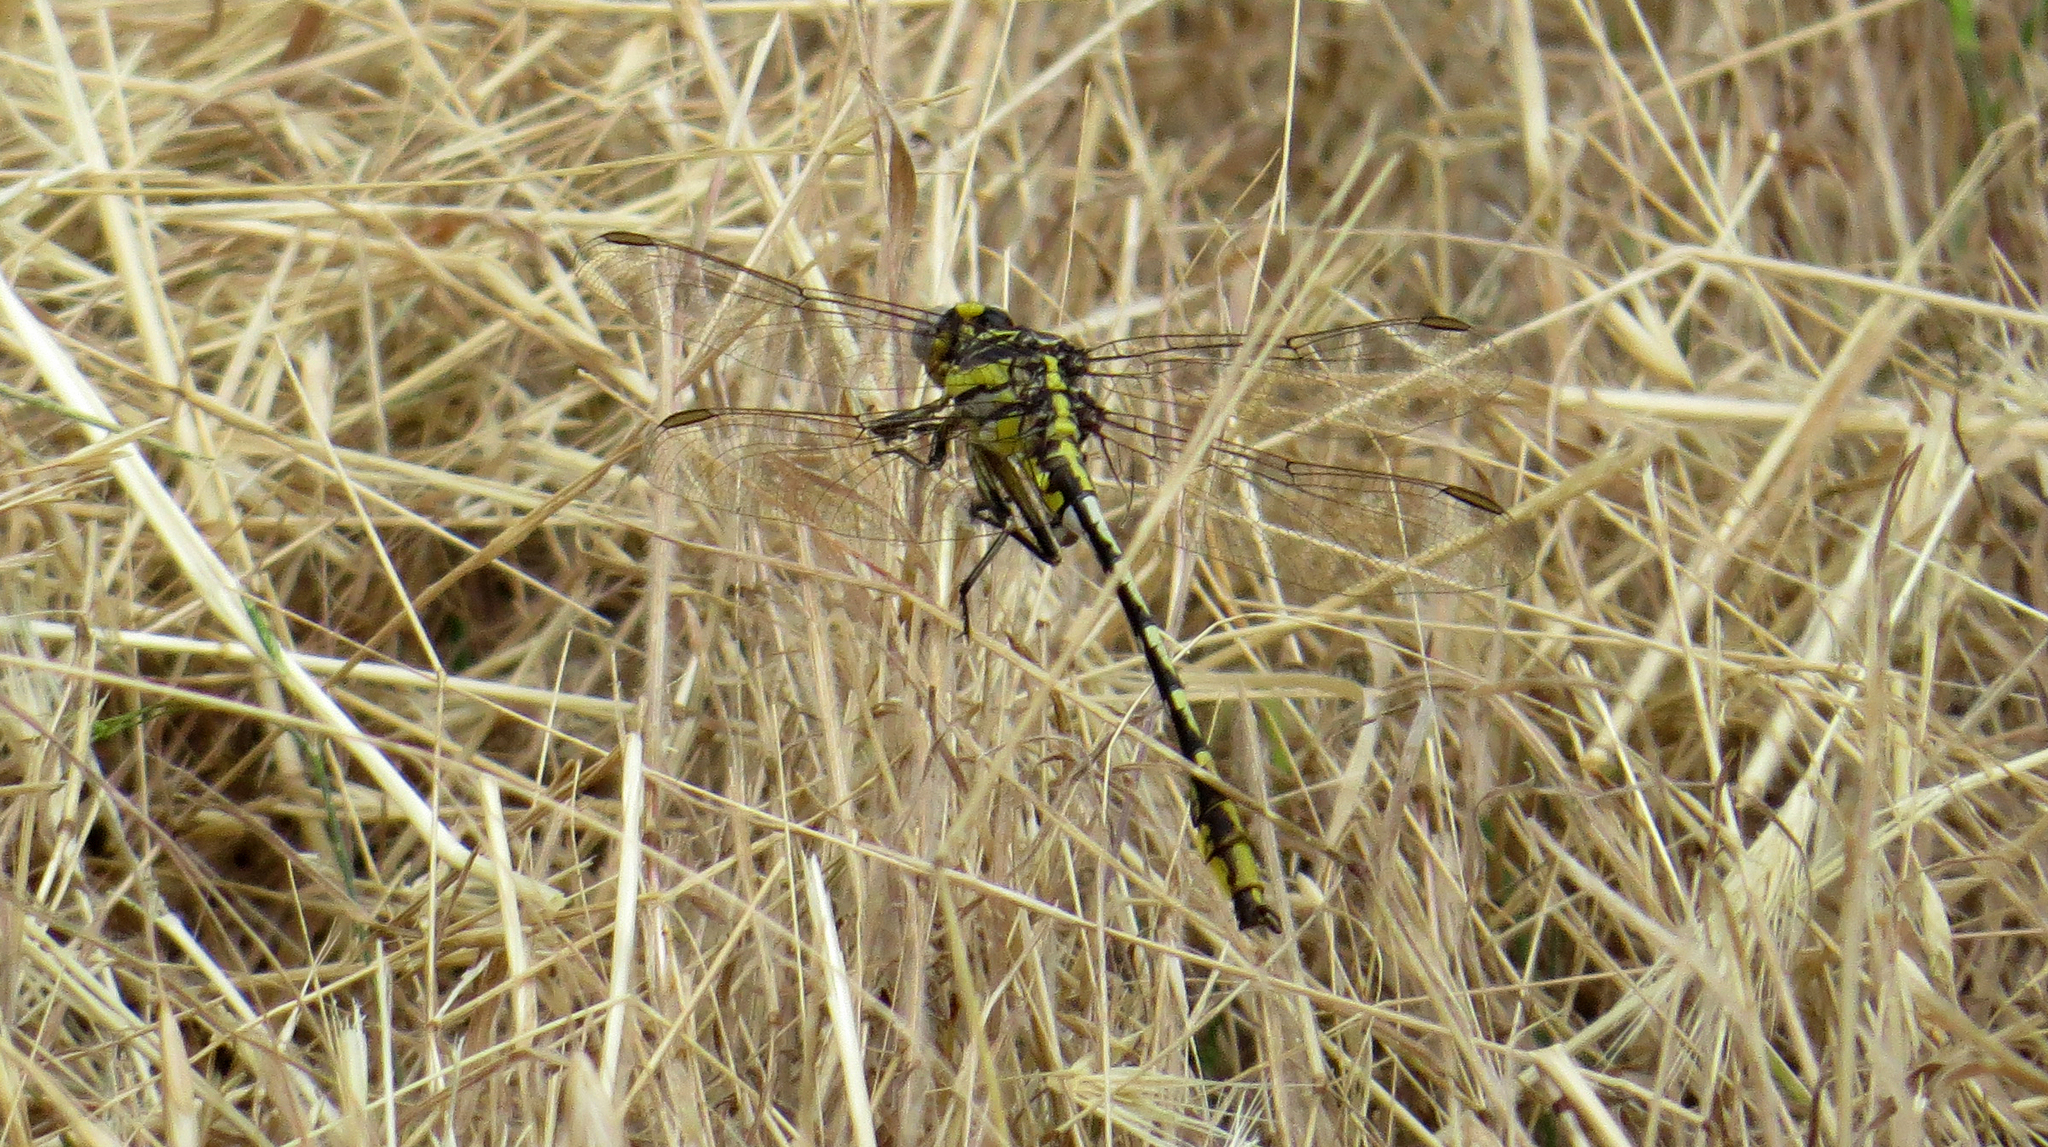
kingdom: Animalia
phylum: Arthropoda
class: Insecta
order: Odonata
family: Gomphidae
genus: Phanogomphus
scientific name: Phanogomphus militaris
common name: Sulphur-tipped clubtail
